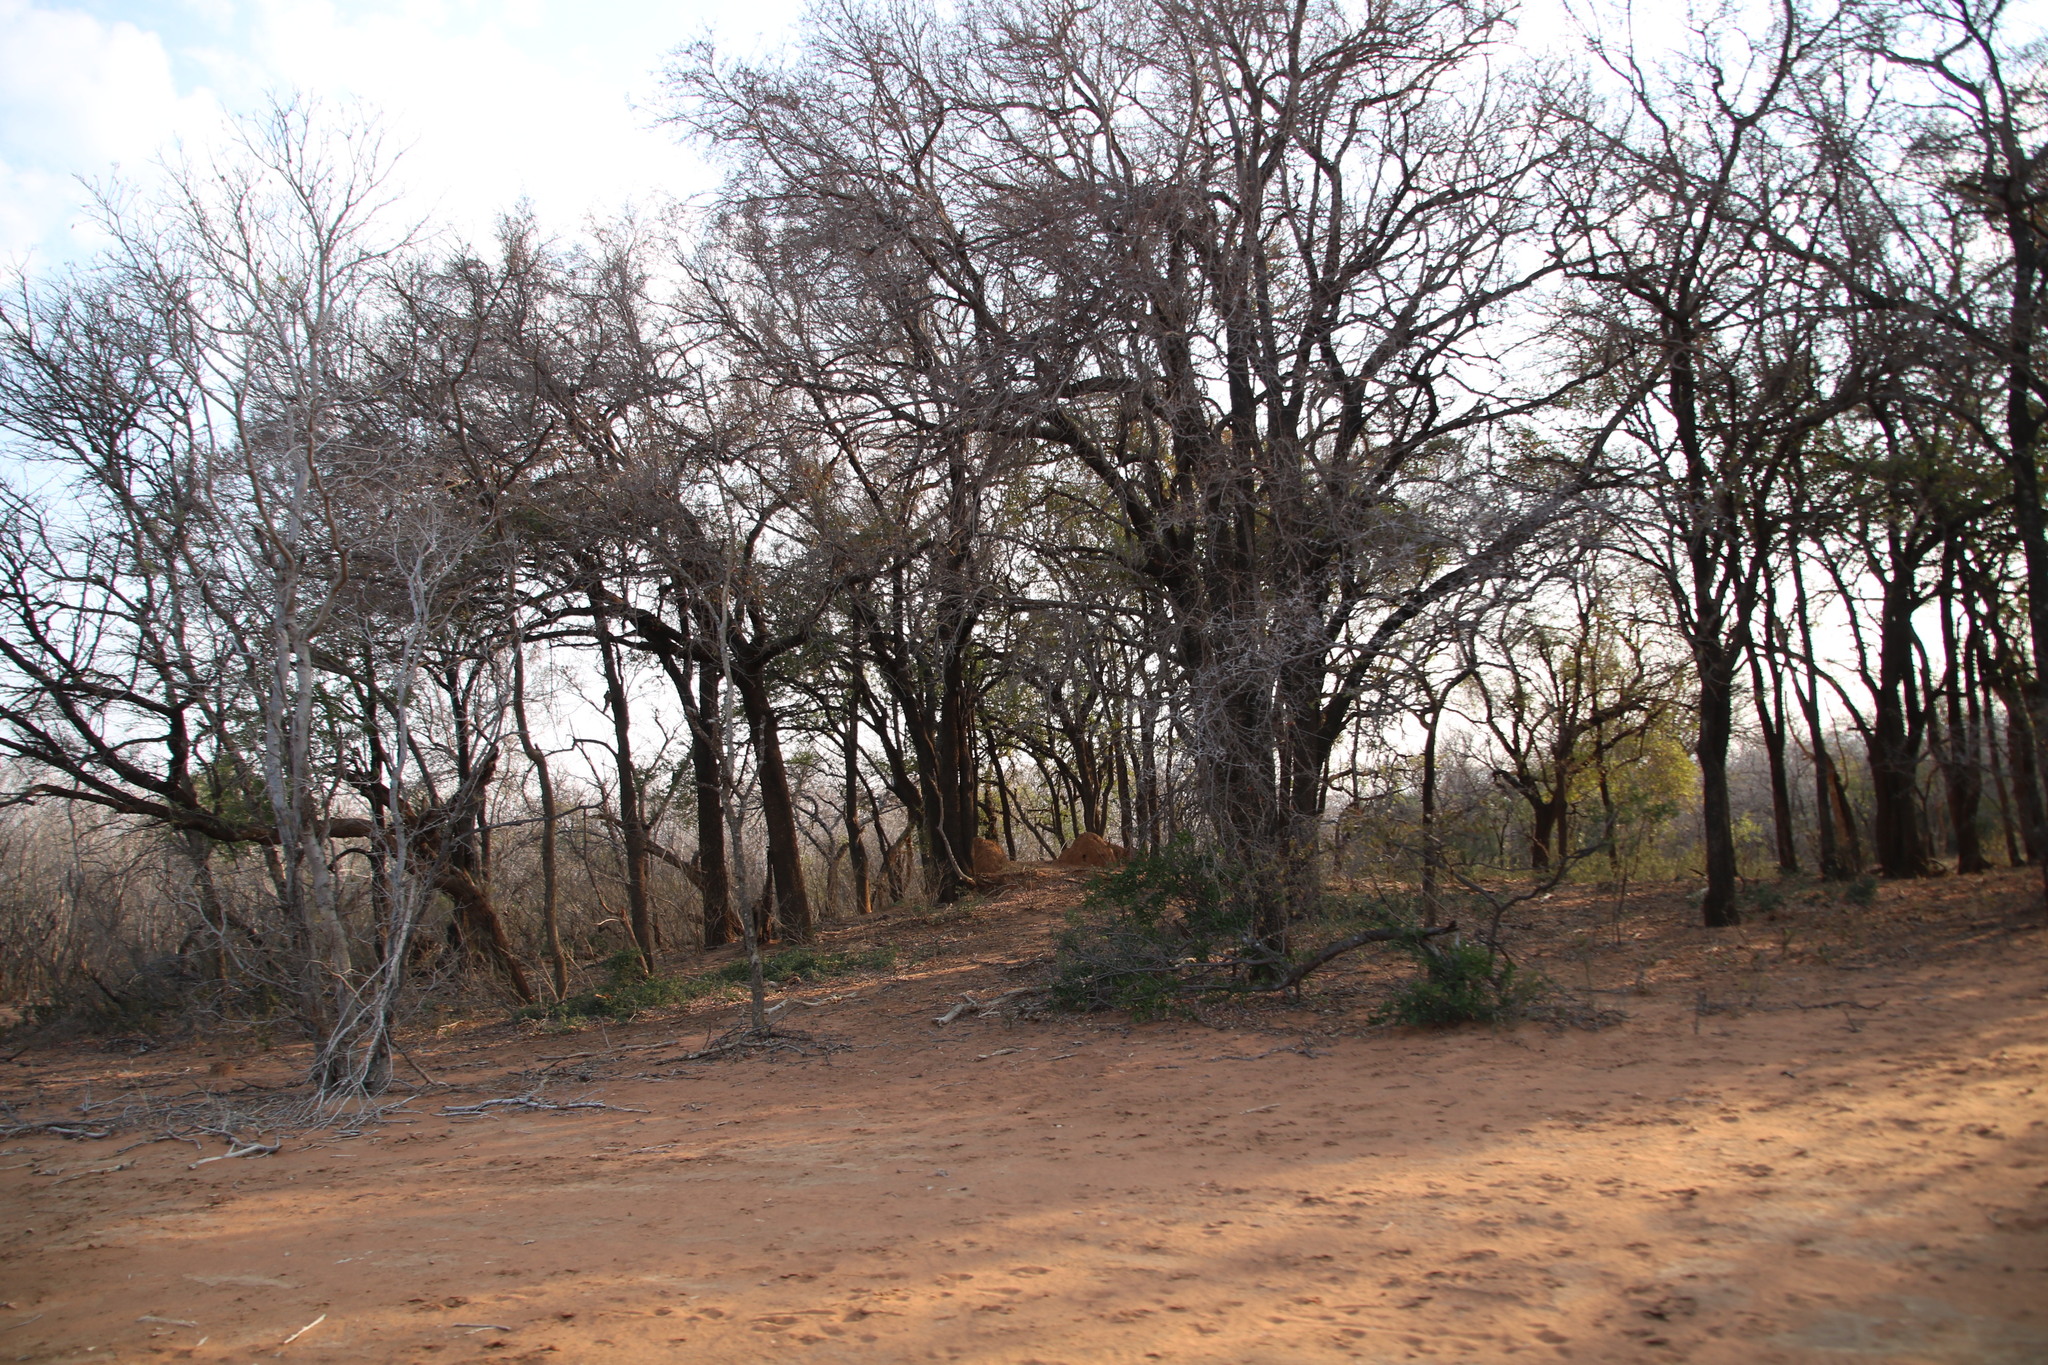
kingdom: Plantae
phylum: Tracheophyta
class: Magnoliopsida
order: Malpighiales
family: Euphorbiaceae
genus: Spirostachys
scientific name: Spirostachys africana
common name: Tamboti
